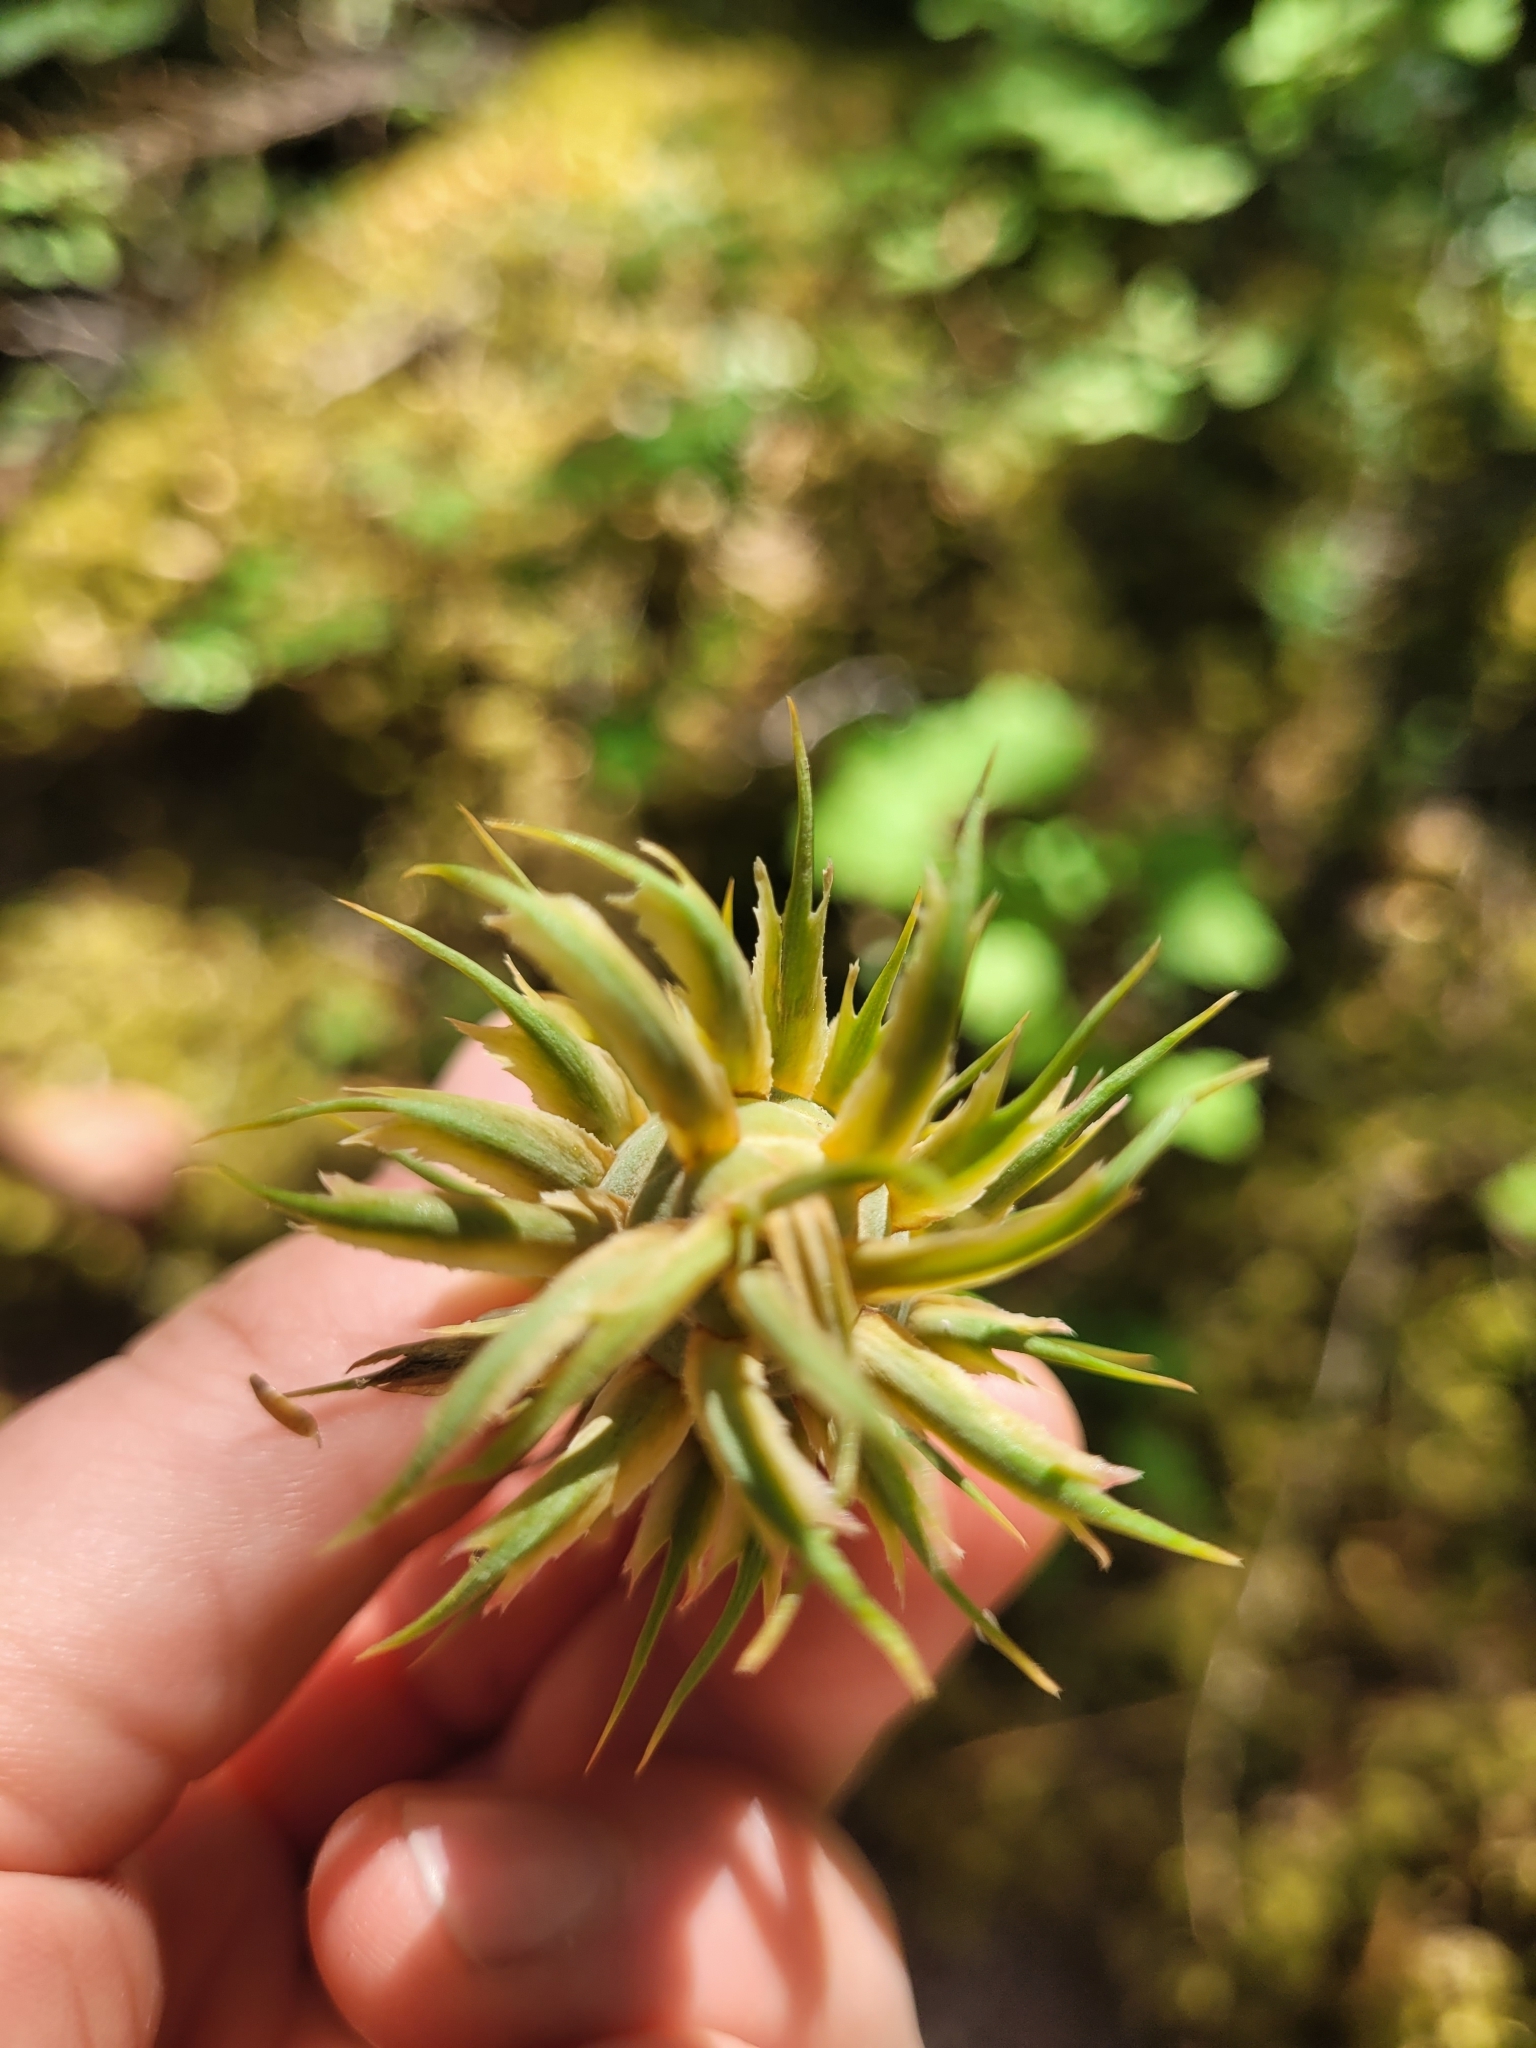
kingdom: Plantae
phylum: Tracheophyta
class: Pinopsida
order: Pinales
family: Pinaceae
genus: Pseudotsuga
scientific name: Pseudotsuga menziesii
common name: Douglas fir
